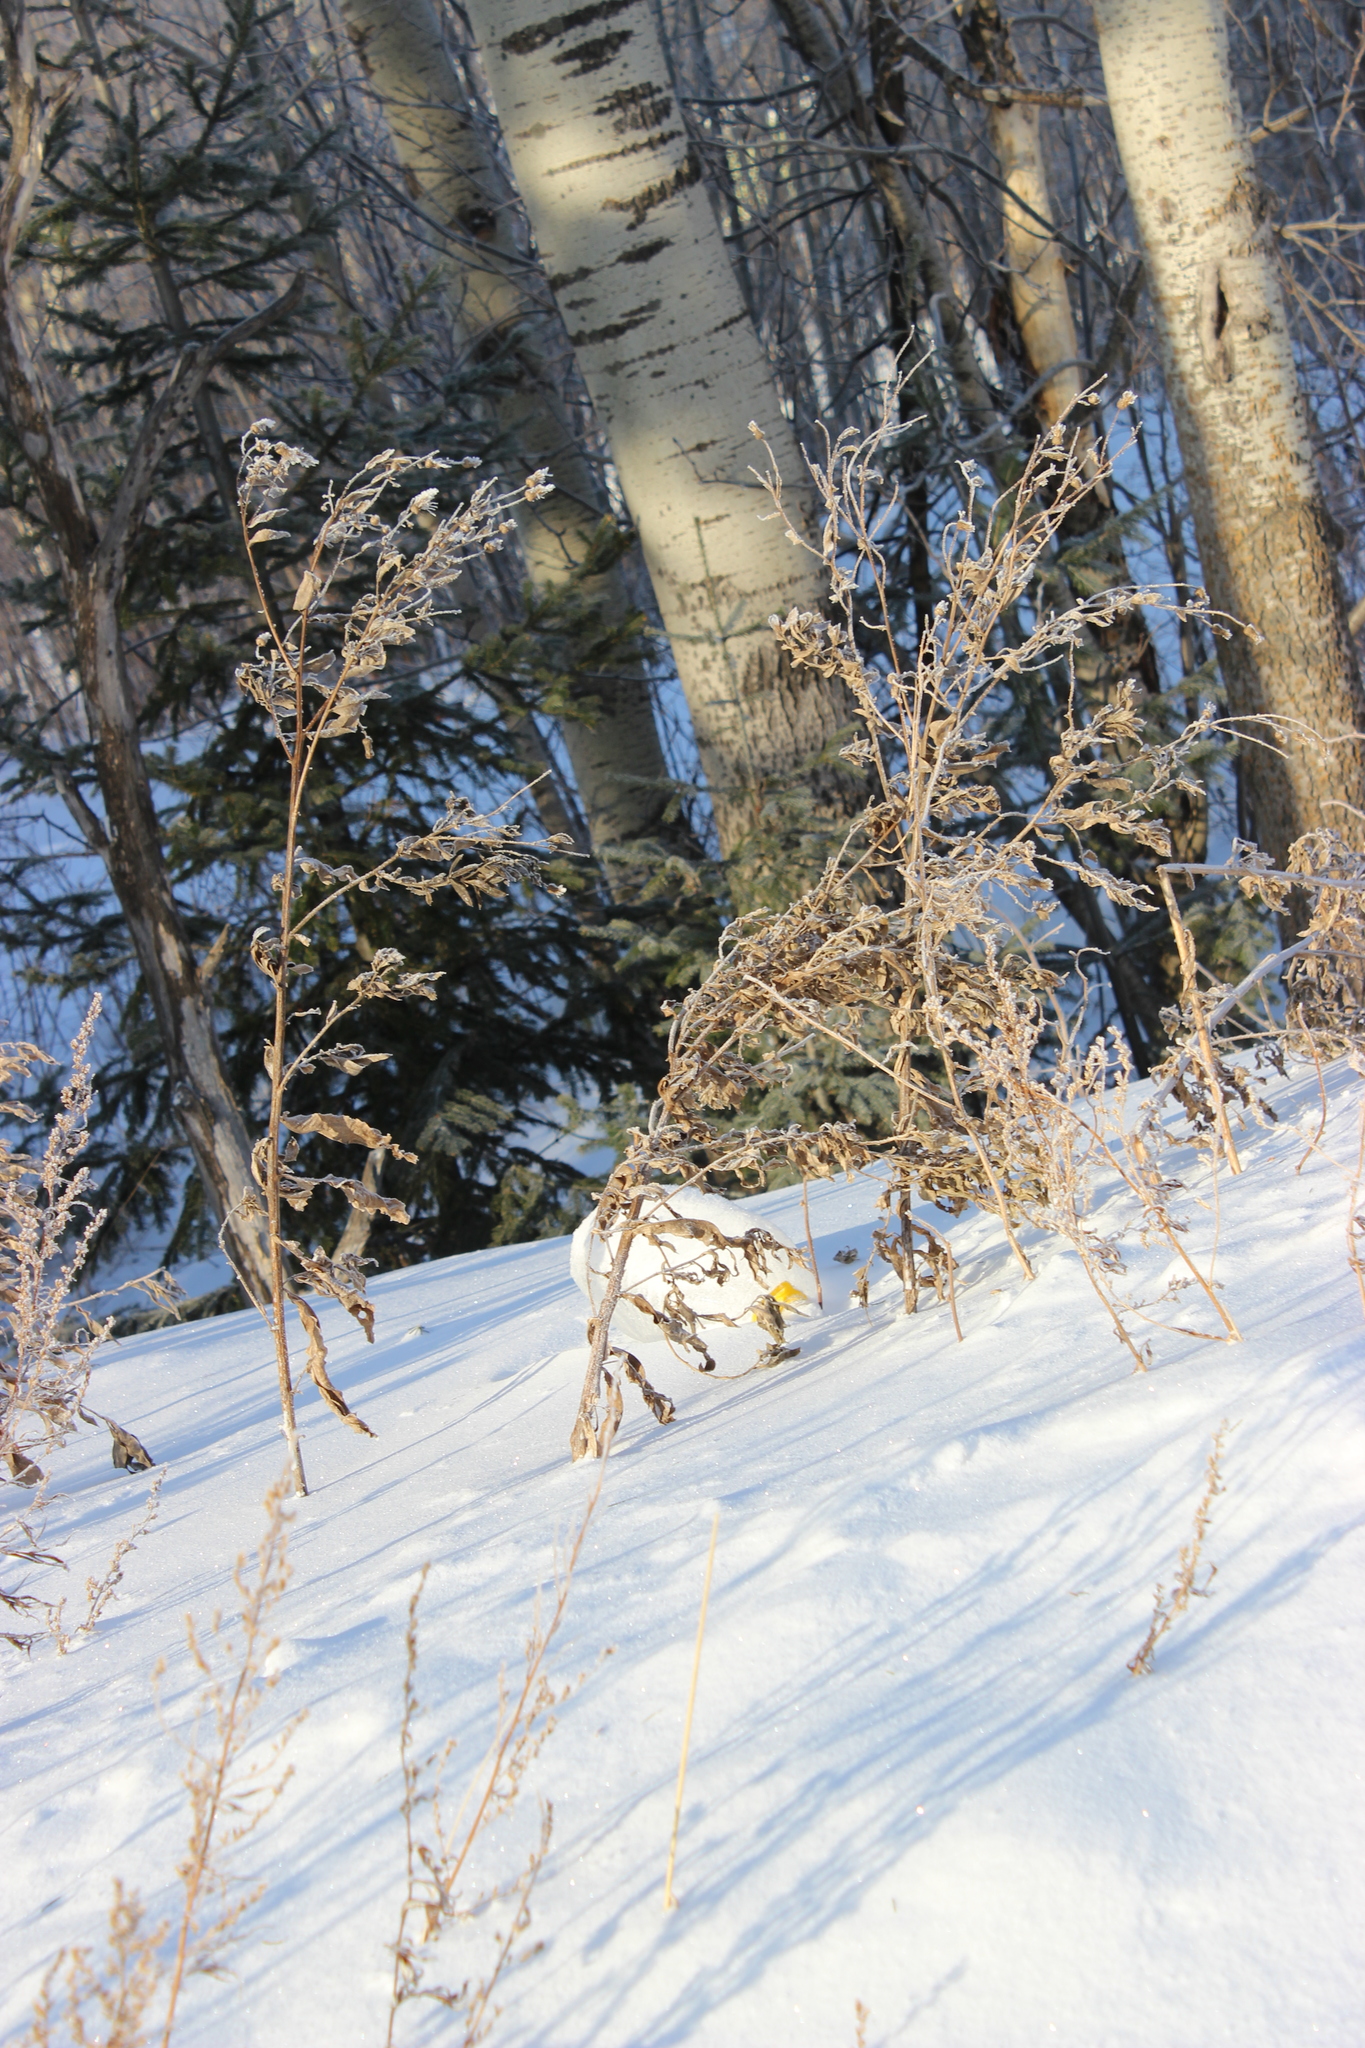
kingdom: Plantae
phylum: Tracheophyta
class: Magnoliopsida
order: Asterales
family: Asteraceae
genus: Cirsium
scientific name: Cirsium arvense
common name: Creeping thistle
